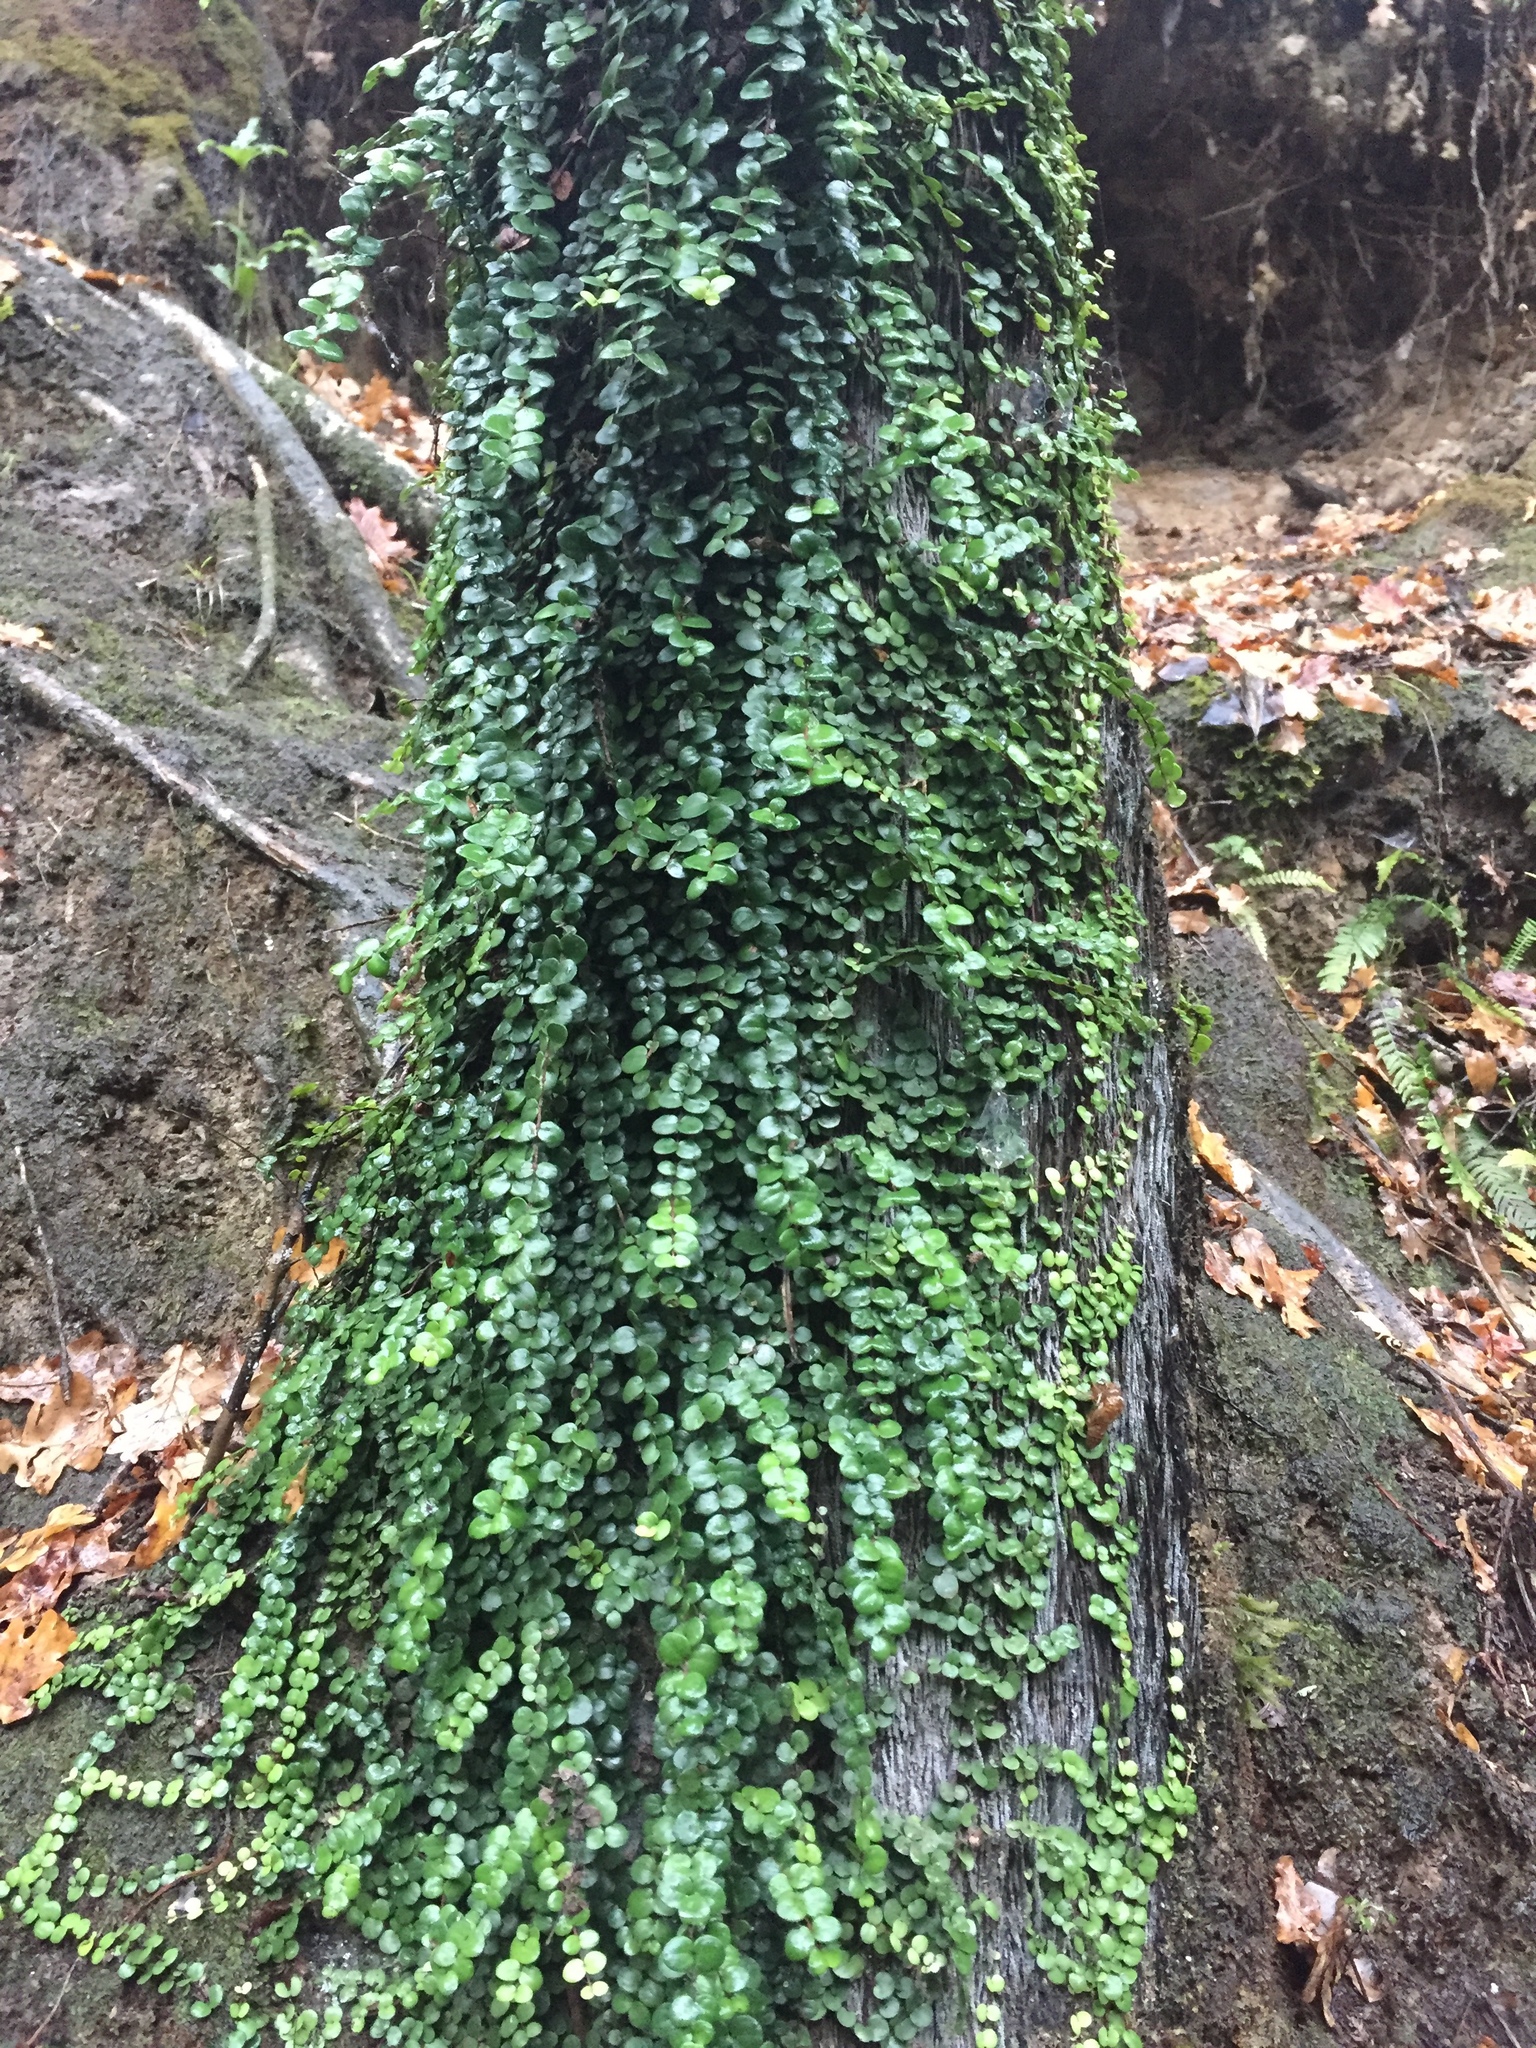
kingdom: Plantae
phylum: Tracheophyta
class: Magnoliopsida
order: Myrtales
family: Myrtaceae
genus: Metrosideros
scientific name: Metrosideros perforata
